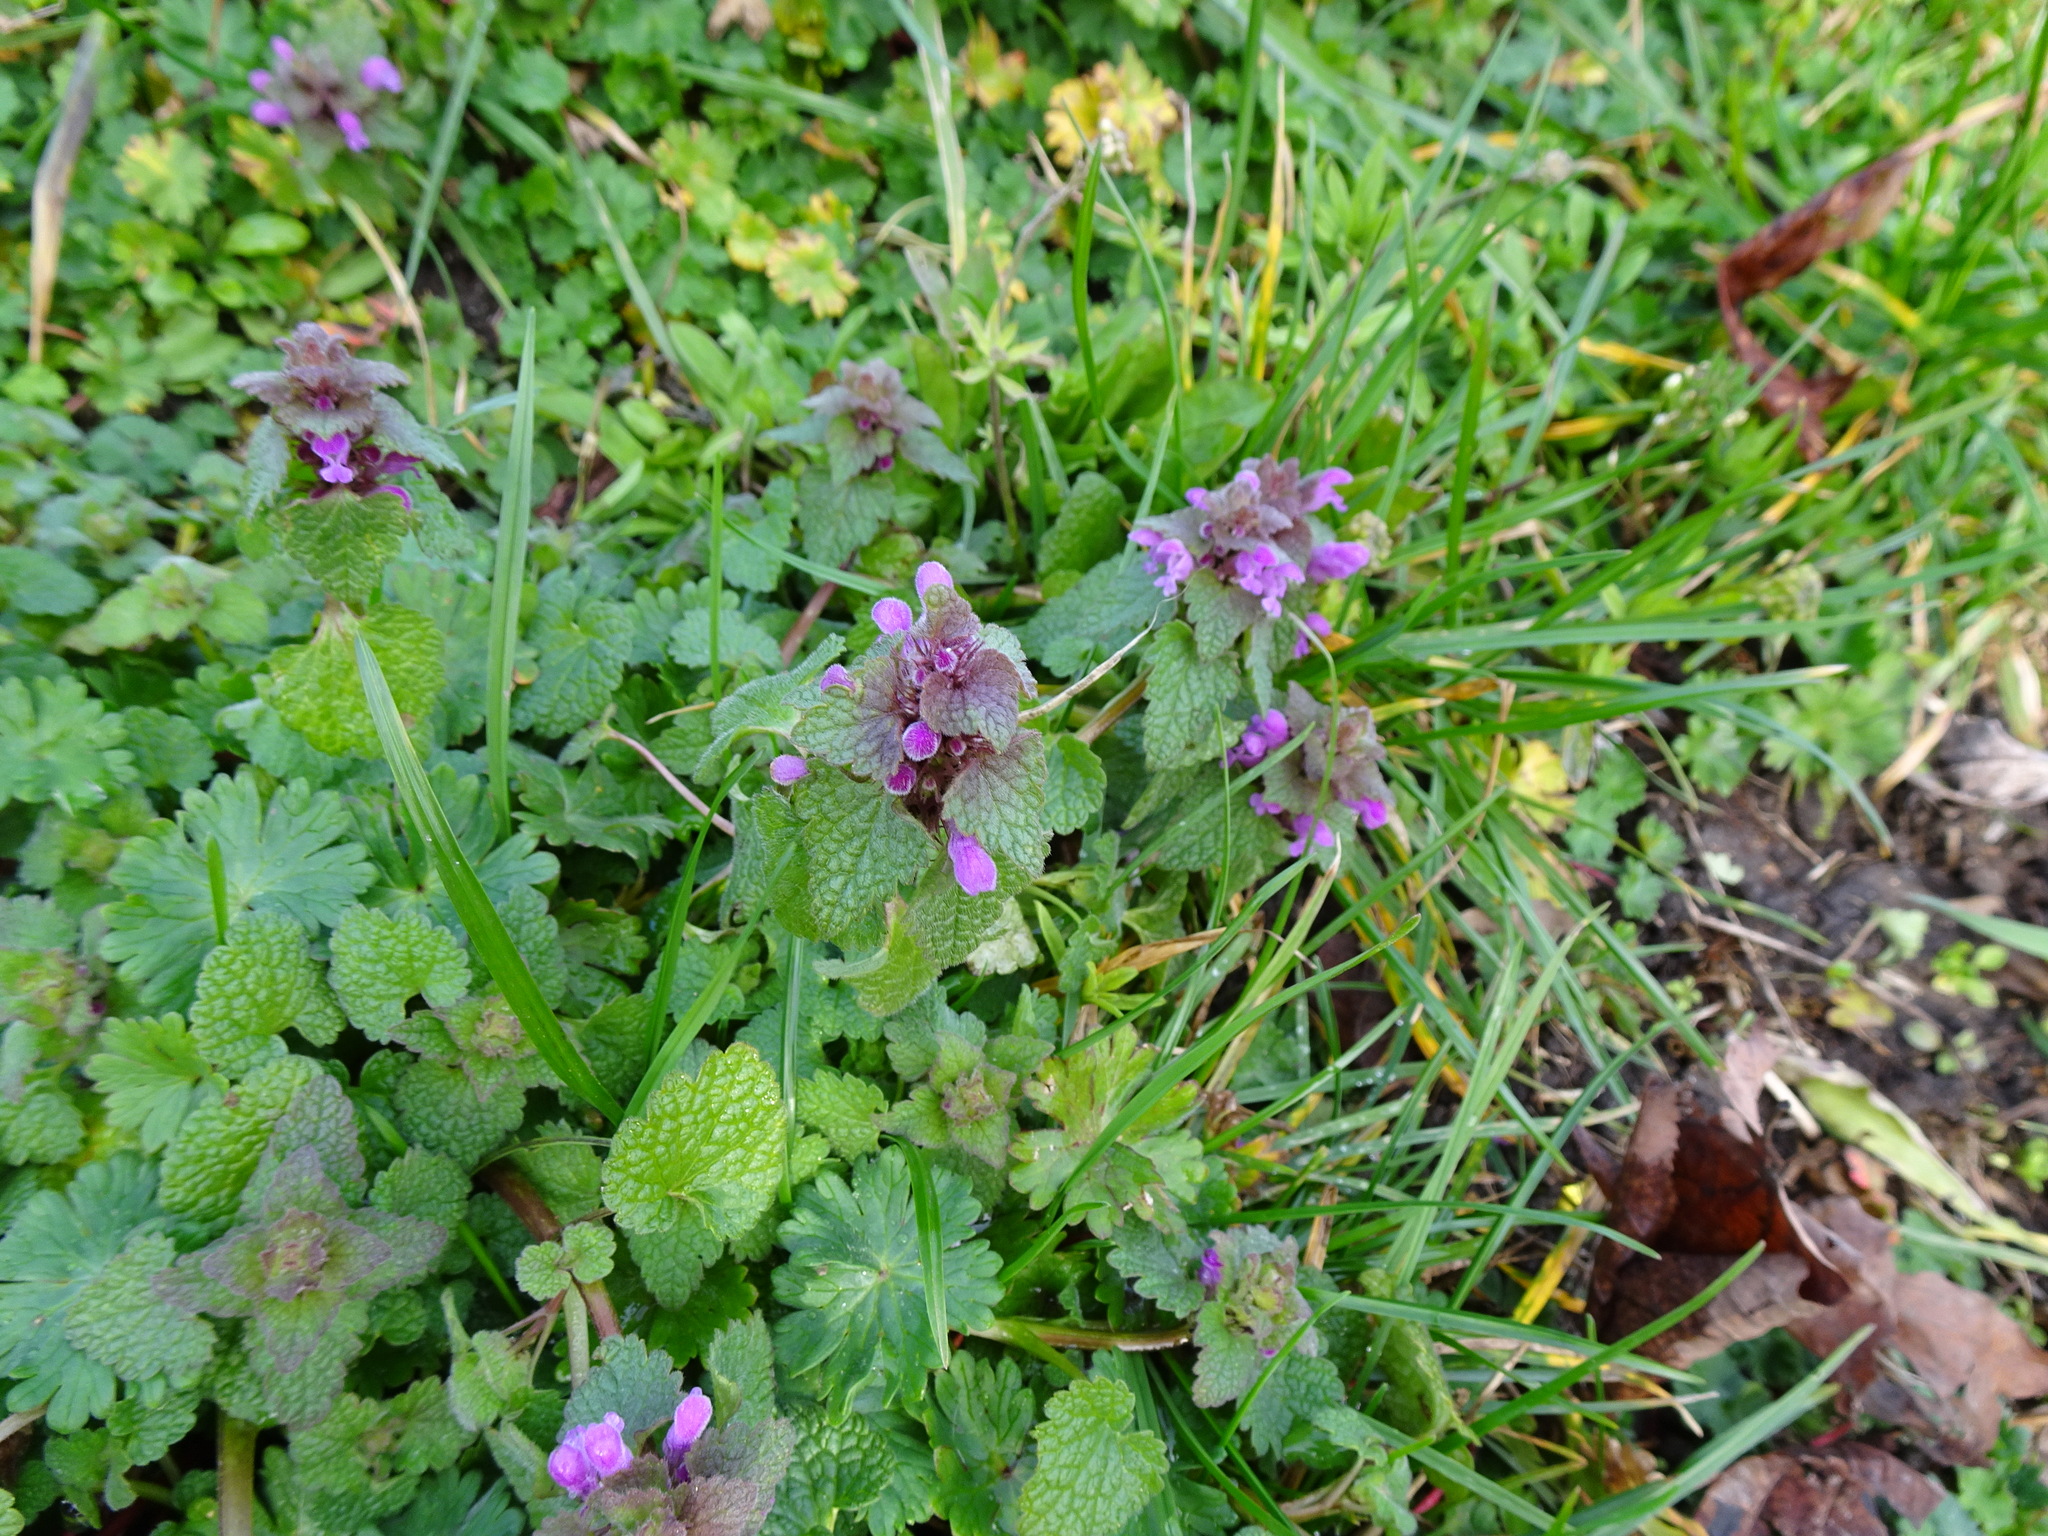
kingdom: Plantae
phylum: Tracheophyta
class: Magnoliopsida
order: Lamiales
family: Lamiaceae
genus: Lamium
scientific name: Lamium purpureum
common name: Red dead-nettle
